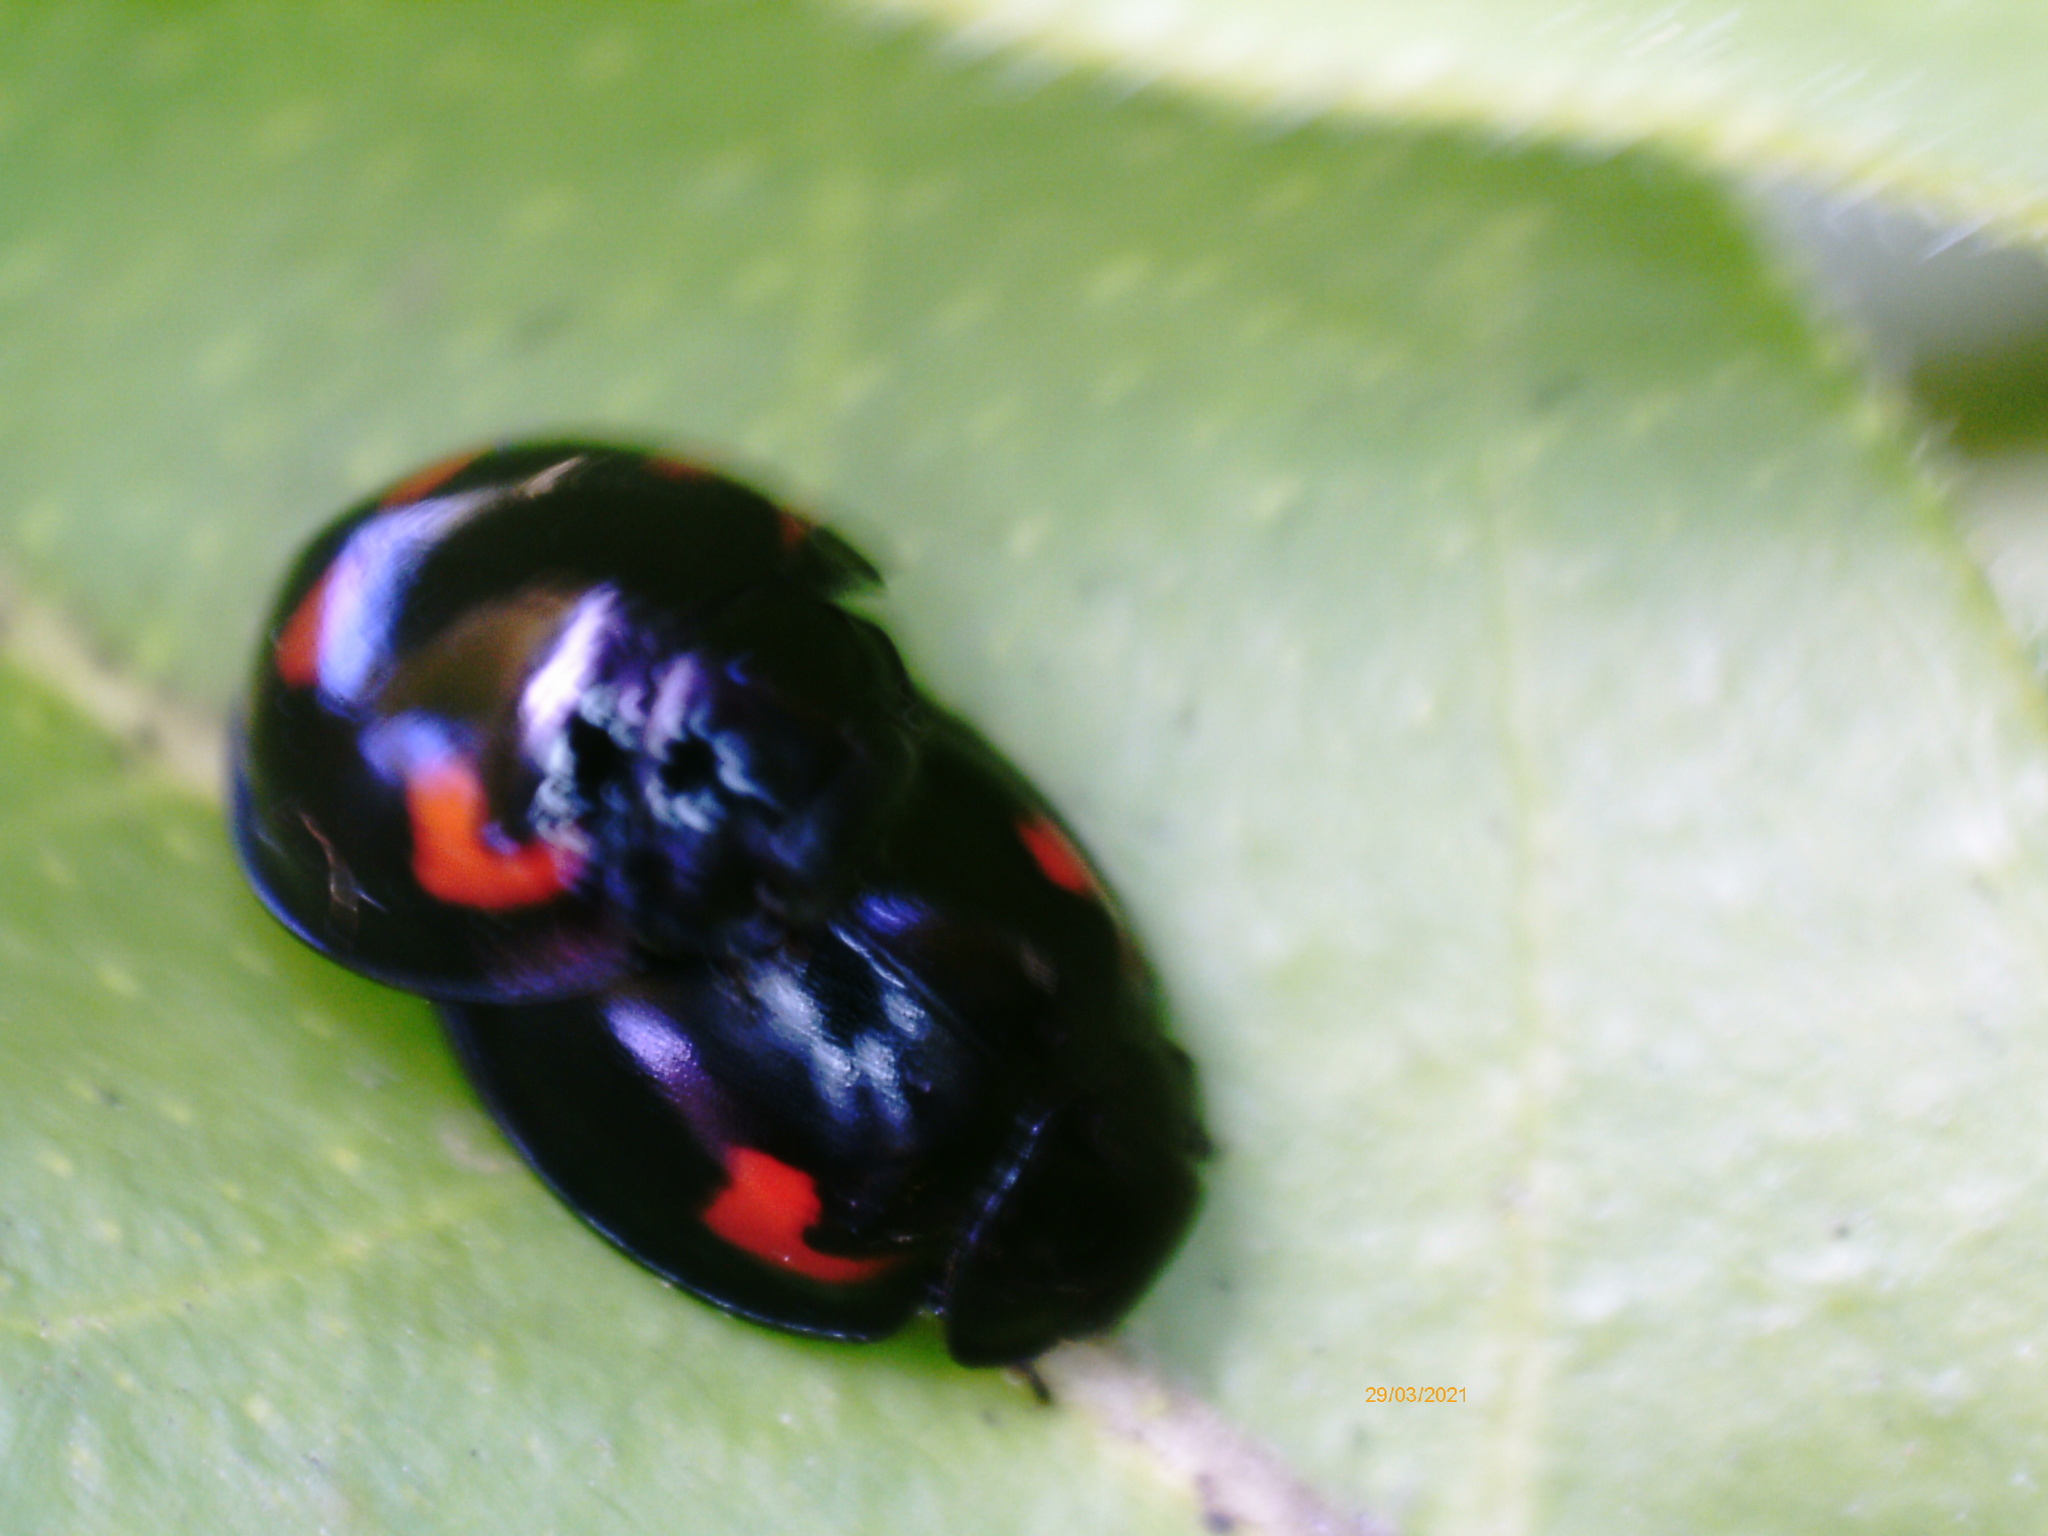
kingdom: Animalia
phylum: Arthropoda
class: Insecta
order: Coleoptera
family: Coccinellidae
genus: Brumus
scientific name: Brumus quadripustulatus
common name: Ladybird beetle
